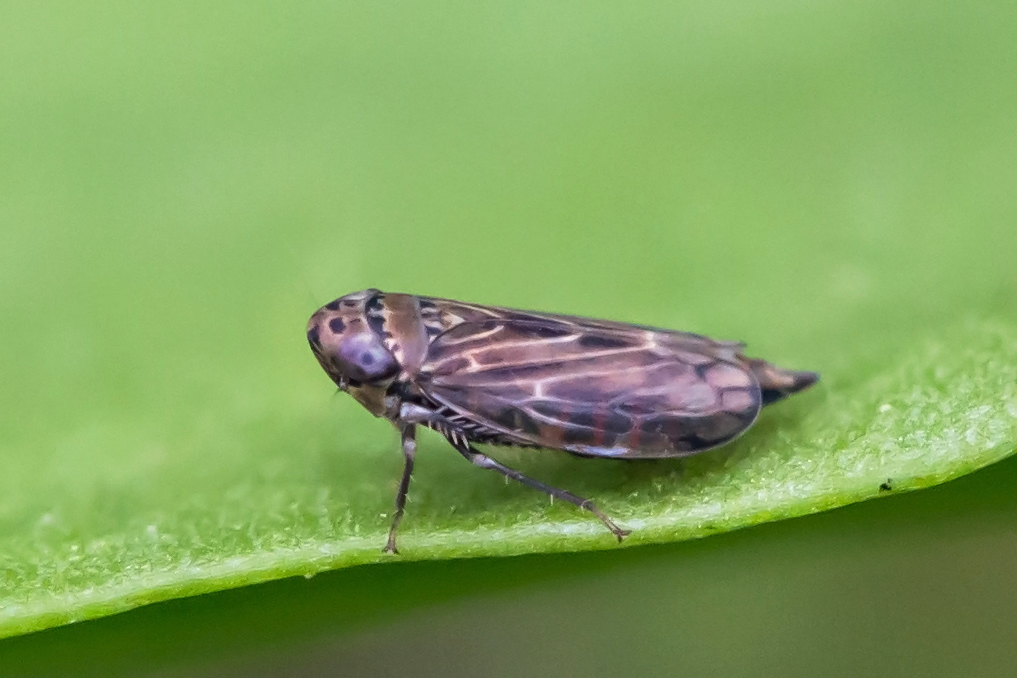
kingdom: Animalia
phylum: Arthropoda
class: Insecta
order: Hemiptera
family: Cicadellidae
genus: Stirellus
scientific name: Stirellus bicolor
